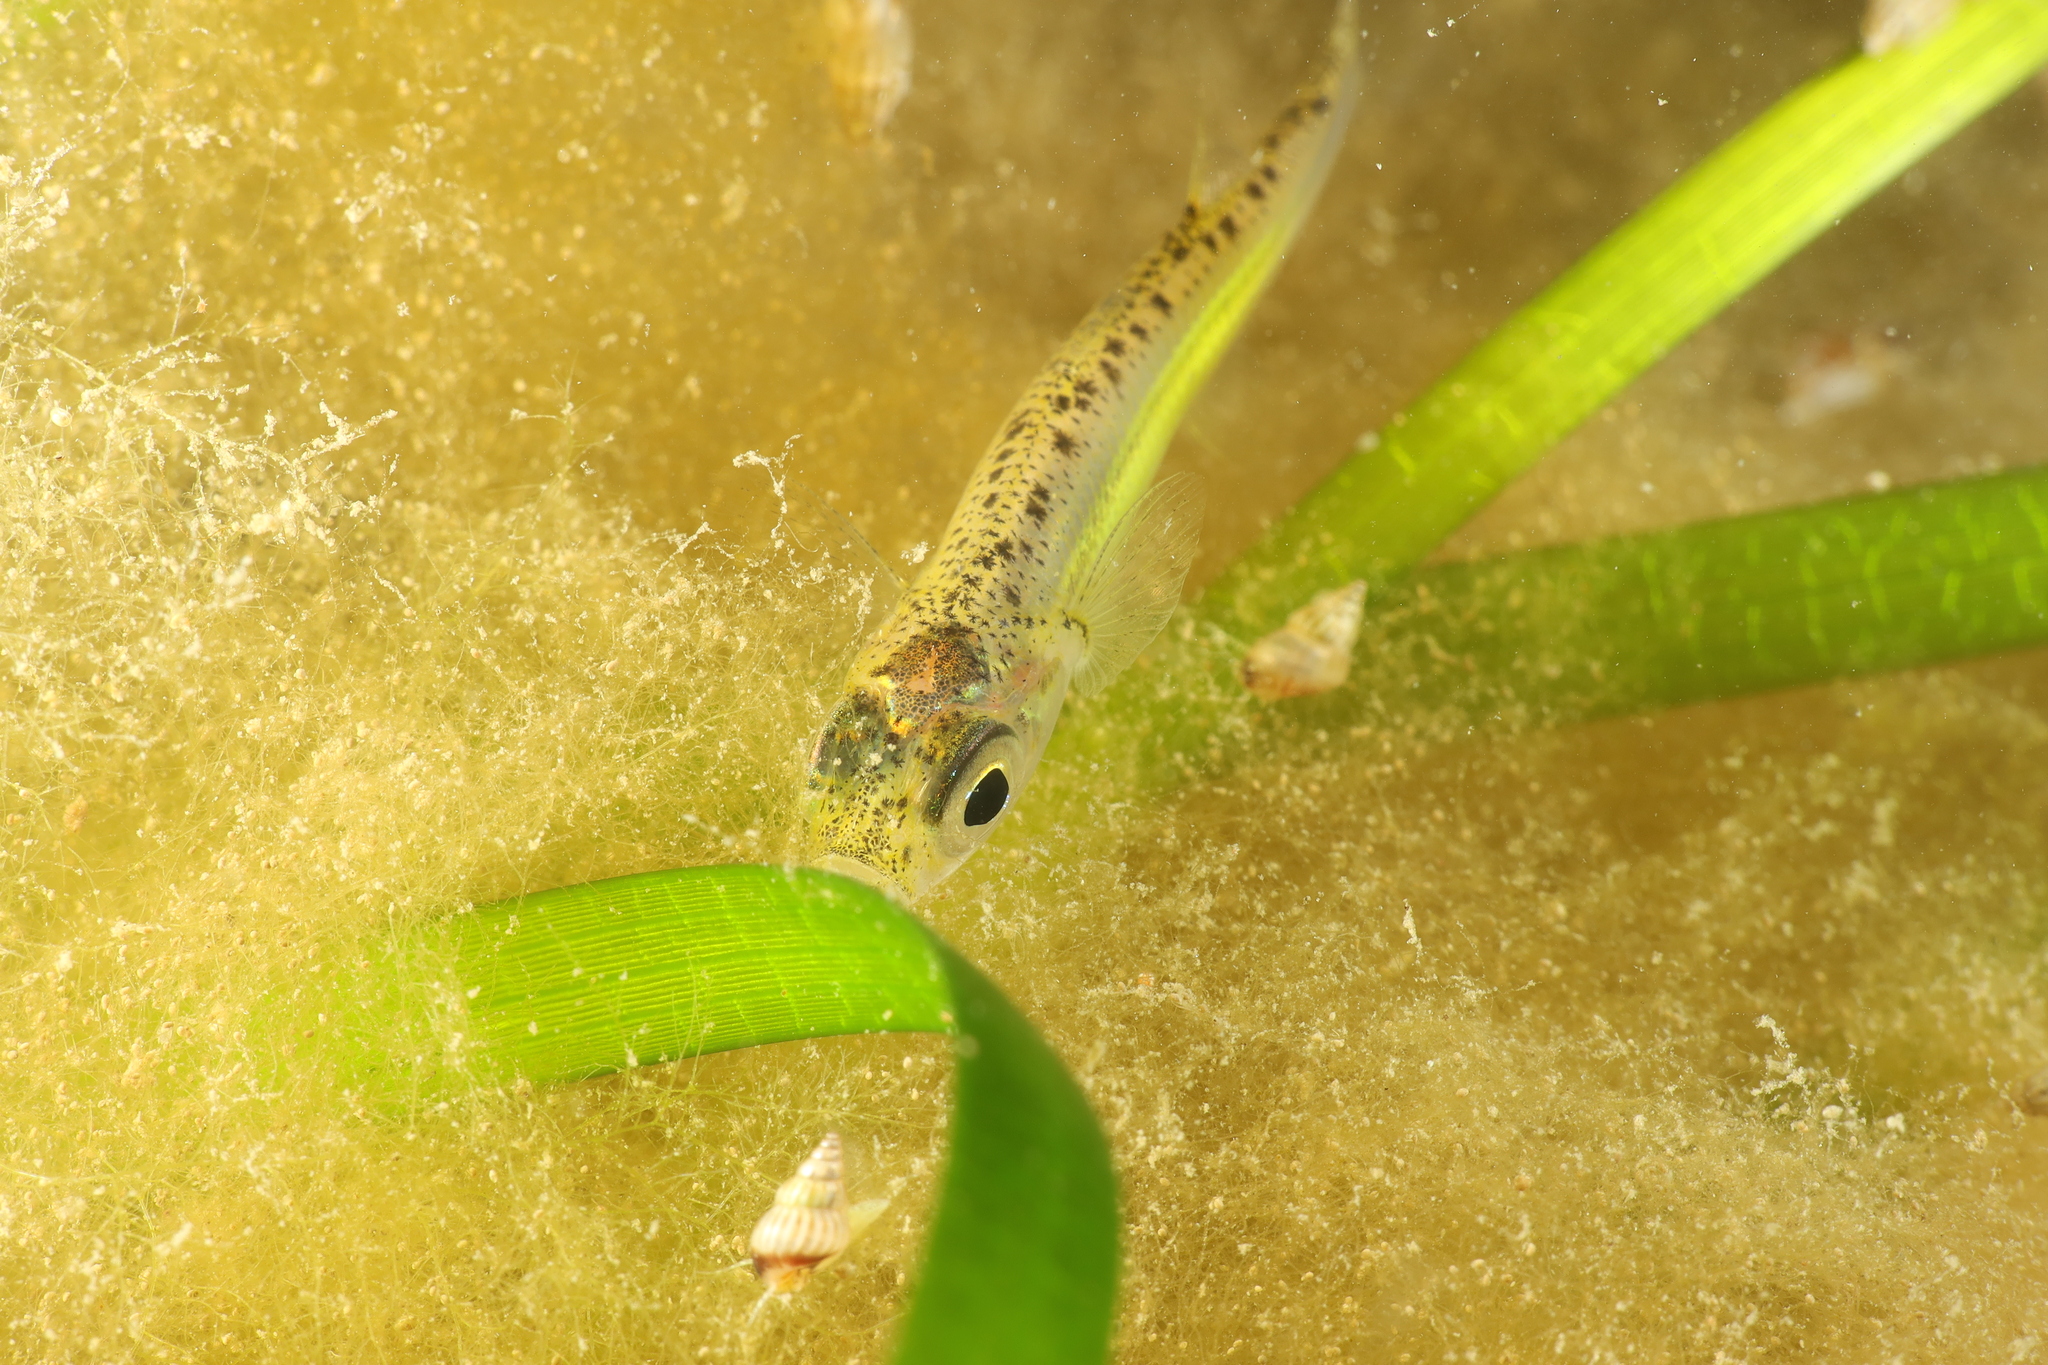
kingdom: Animalia
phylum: Chordata
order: Atheriniformes
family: Atherinidae
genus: Atherina
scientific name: Atherina boyeri
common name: Big-scale sand smelt
